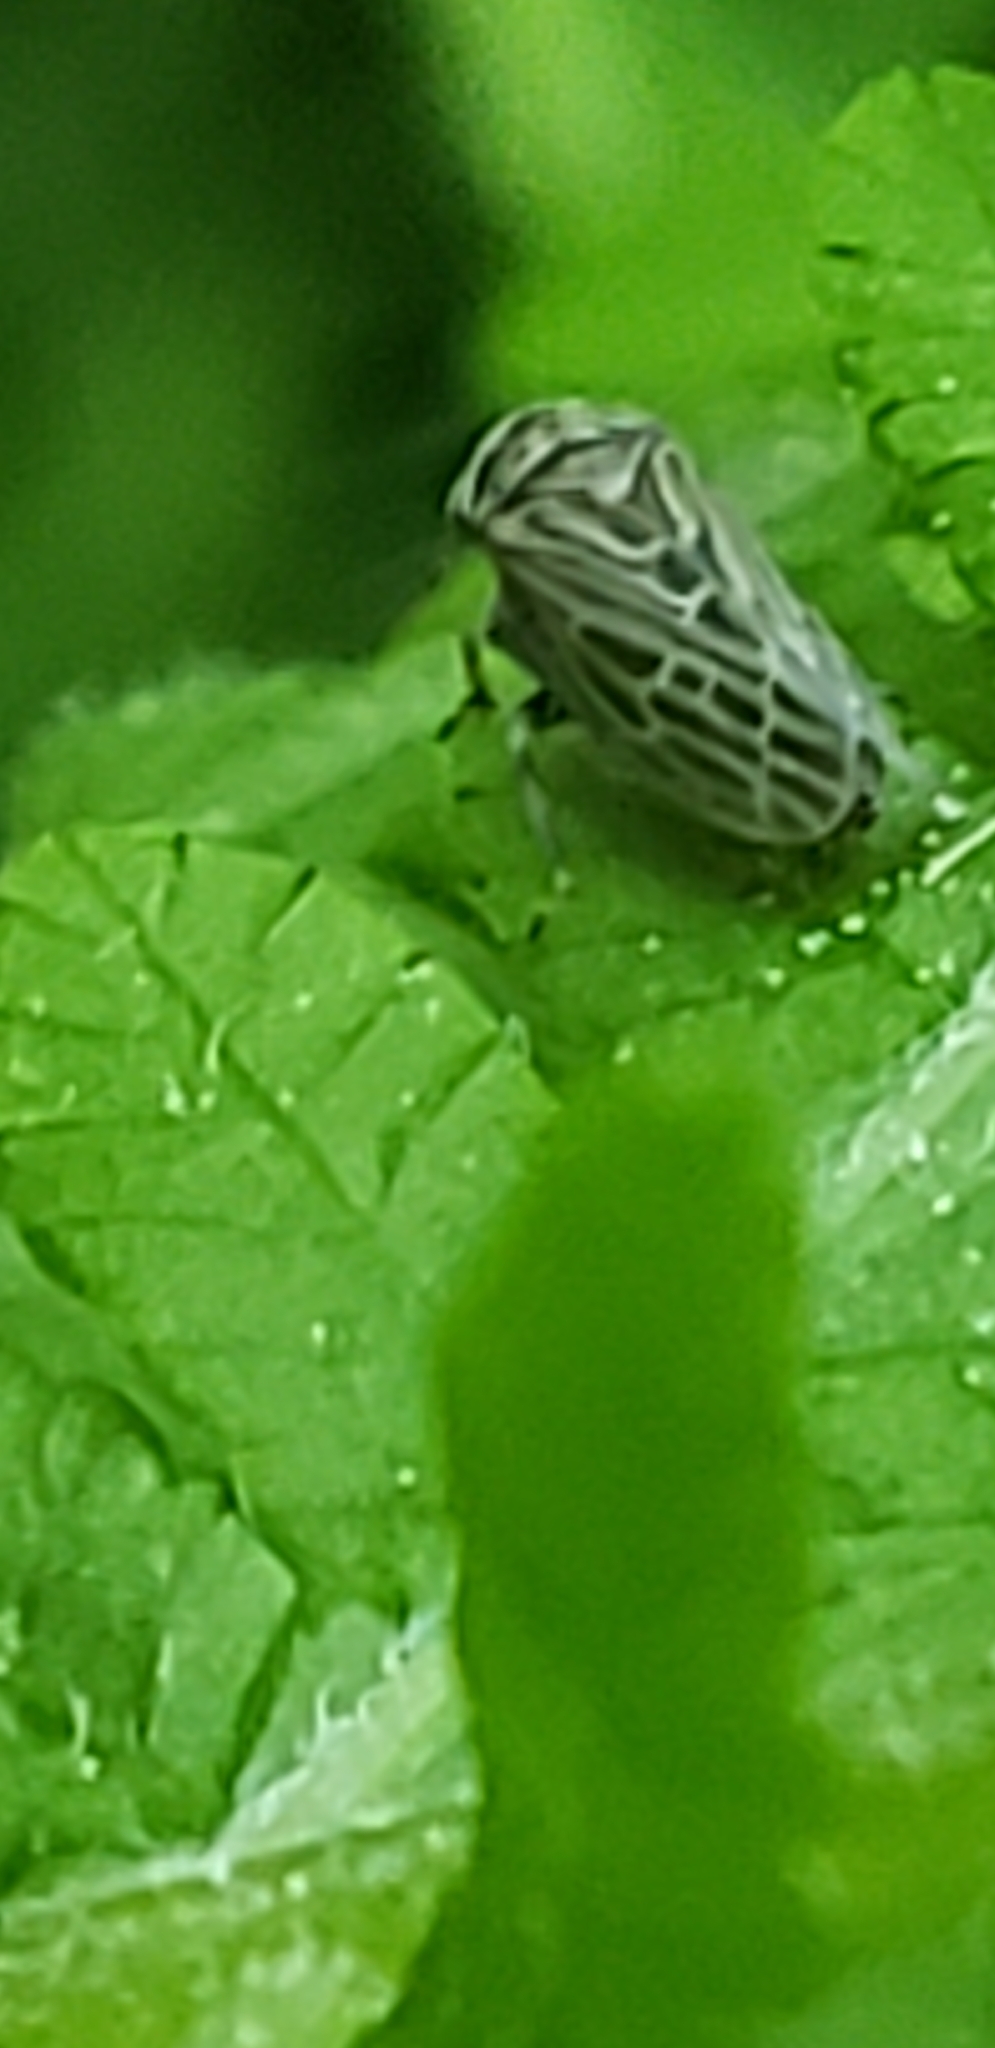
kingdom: Animalia
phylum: Arthropoda
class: Insecta
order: Hemiptera
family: Cicadellidae
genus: Agalliota
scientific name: Agalliota quadripunctata
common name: The four-spotted clover leafhopper
